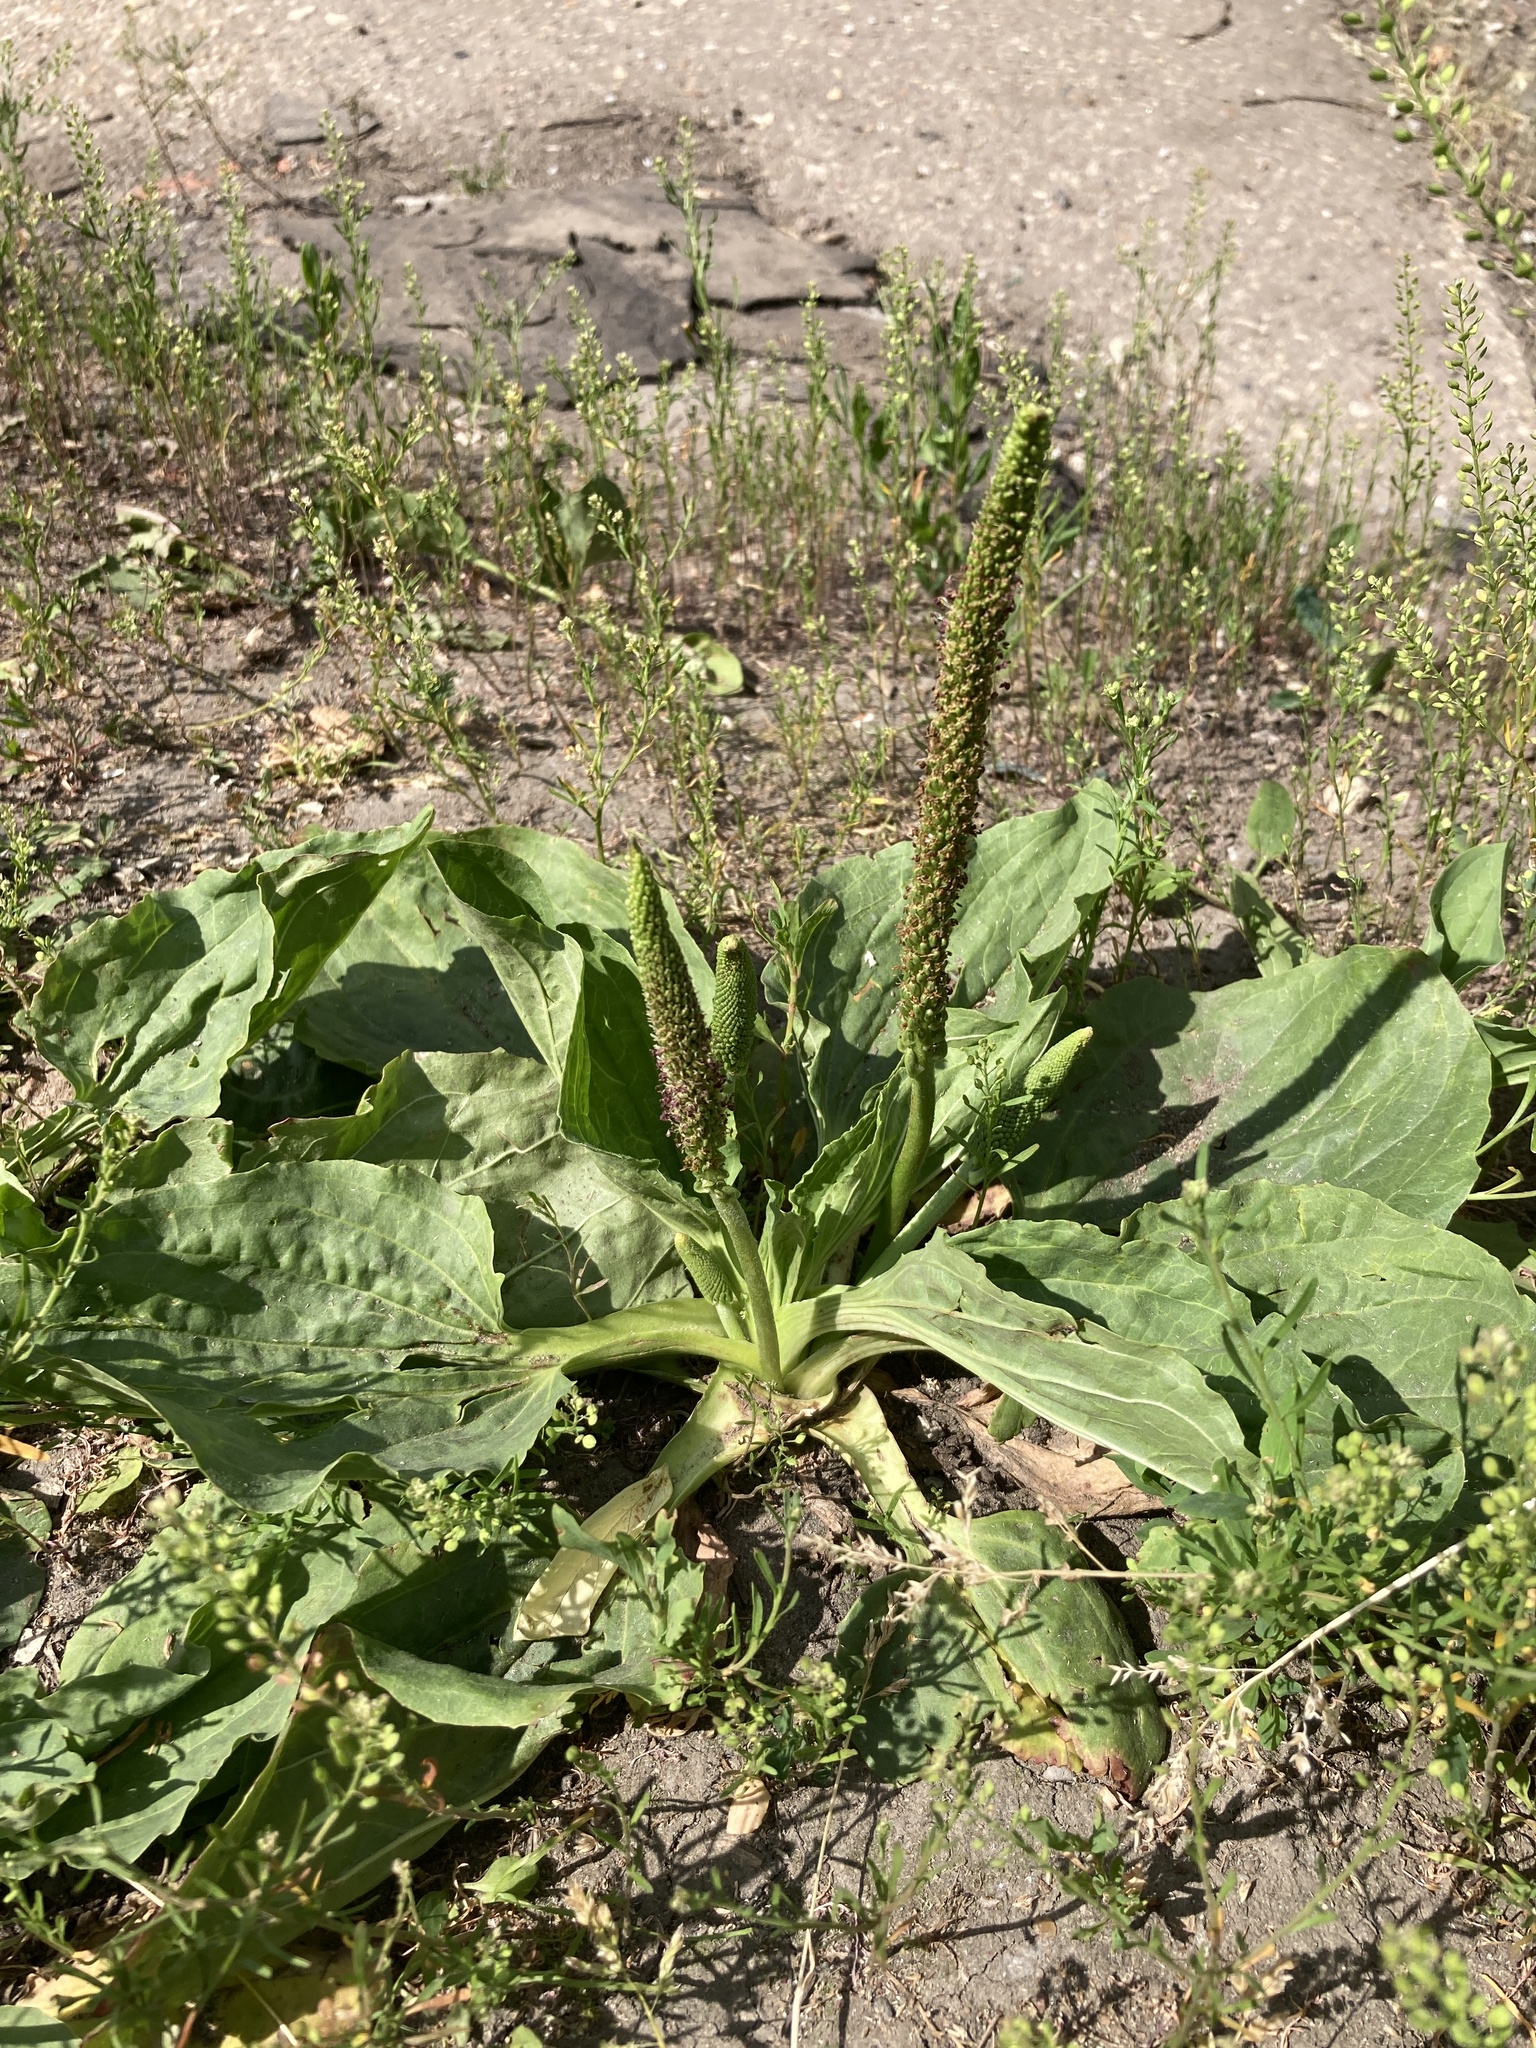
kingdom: Plantae
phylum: Tracheophyta
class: Magnoliopsida
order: Lamiales
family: Plantaginaceae
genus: Plantago
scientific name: Plantago major
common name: Common plantain
